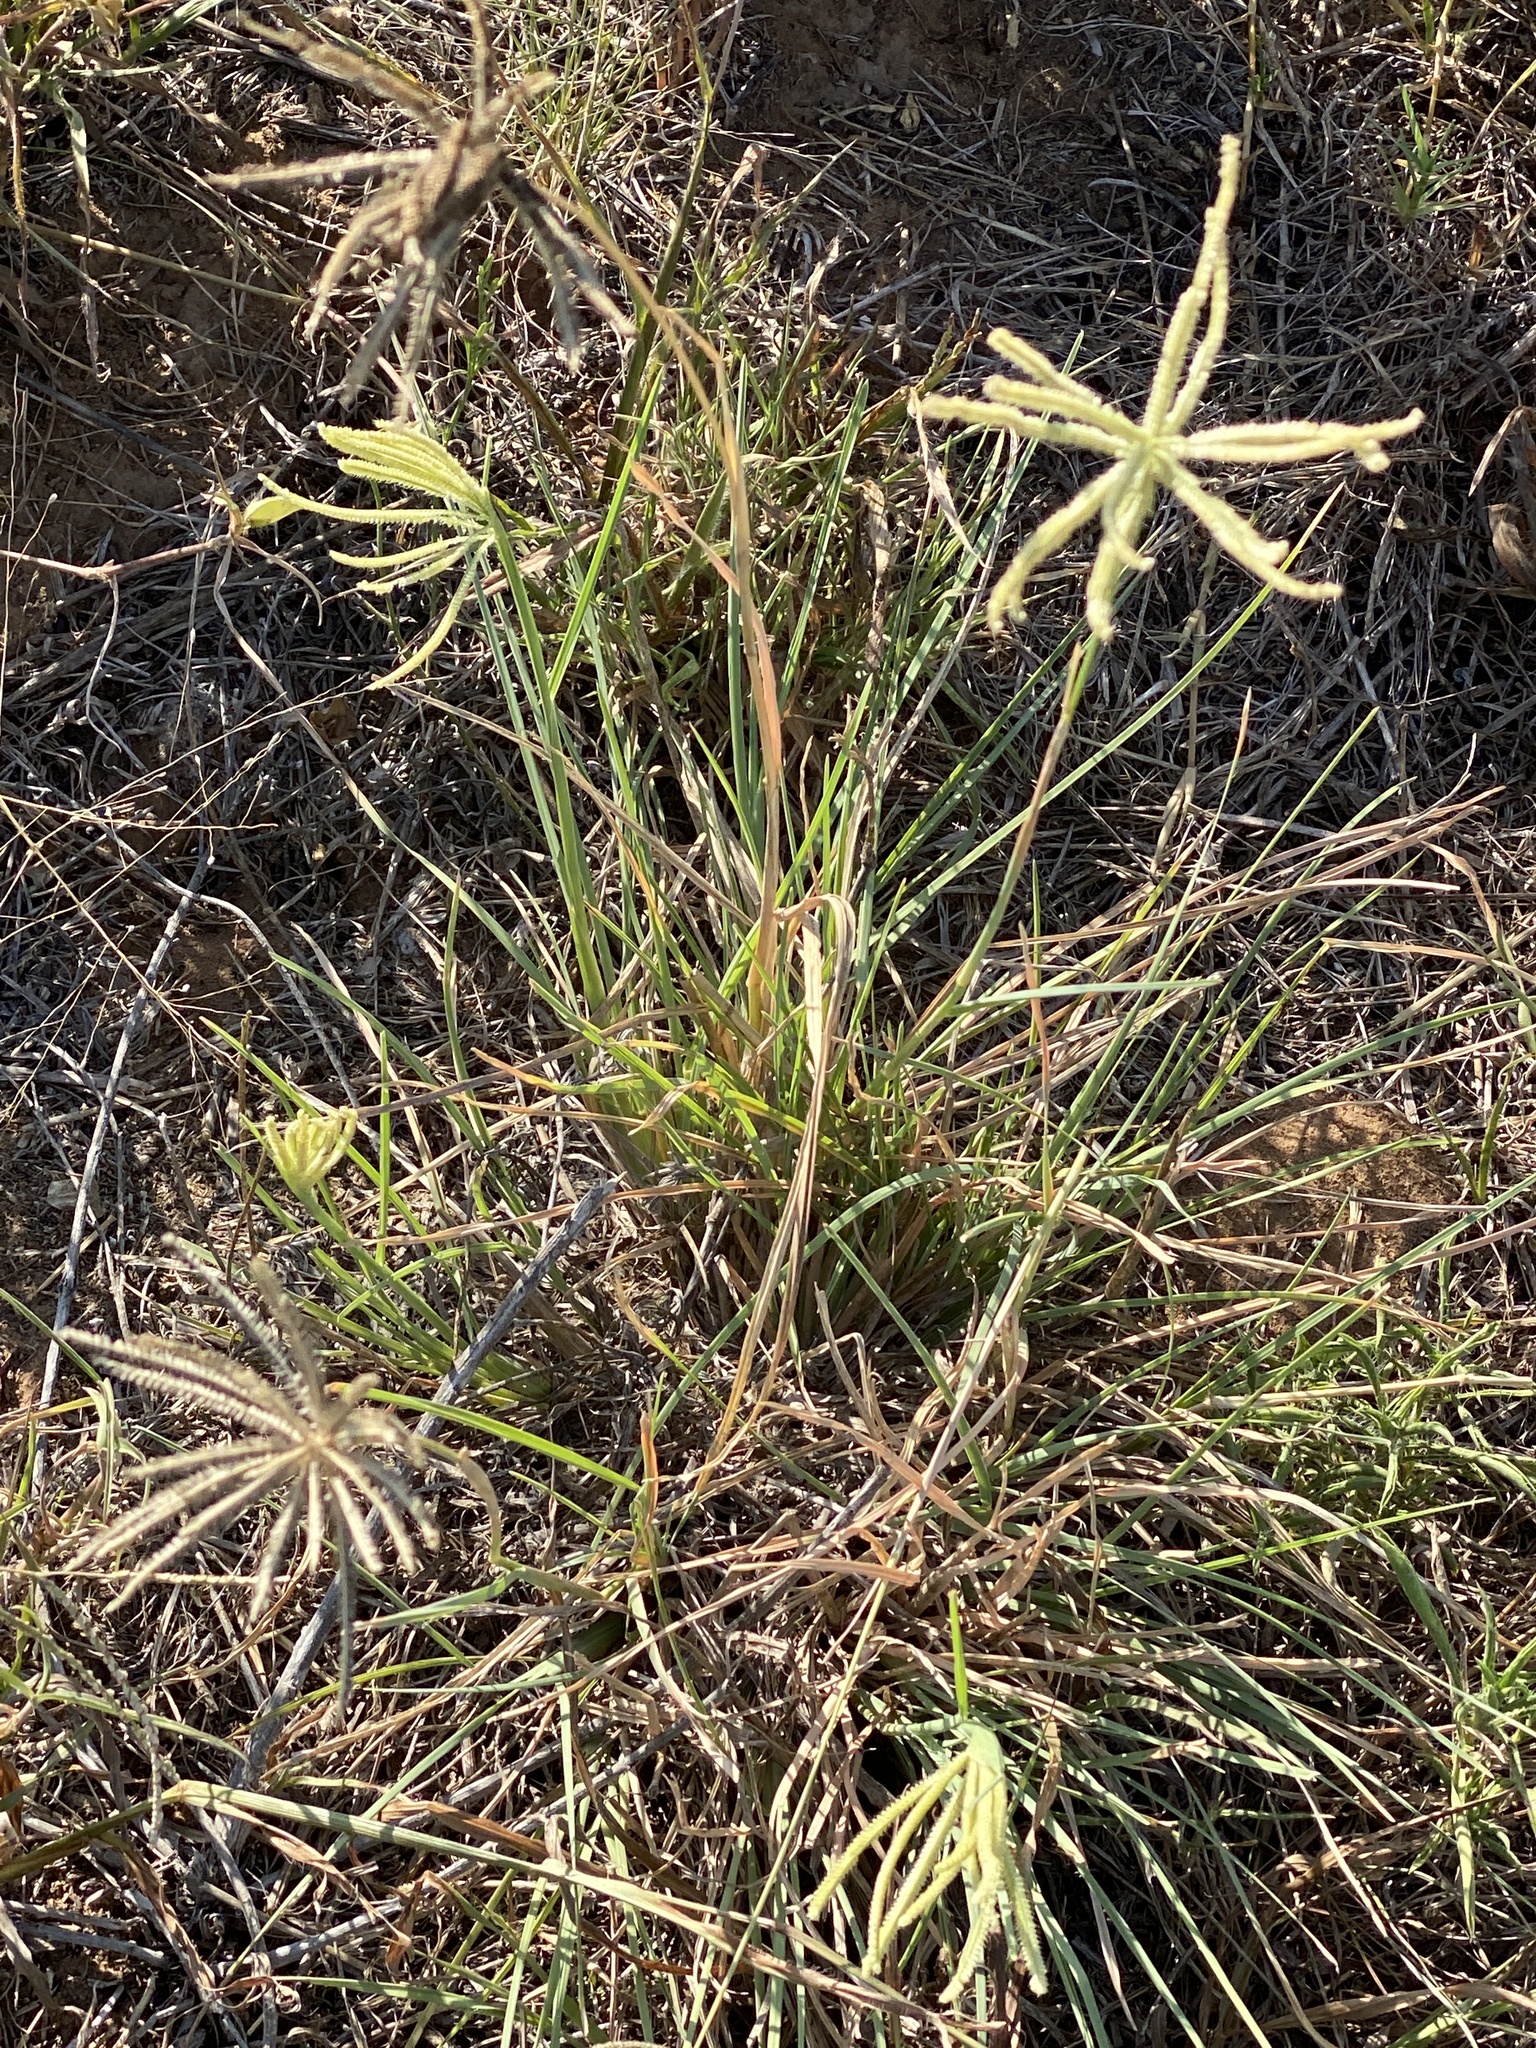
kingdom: Plantae
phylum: Tracheophyta
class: Liliopsida
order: Poales
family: Poaceae
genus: Chloris
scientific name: Chloris cucullata
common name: Hooded windmill grass
